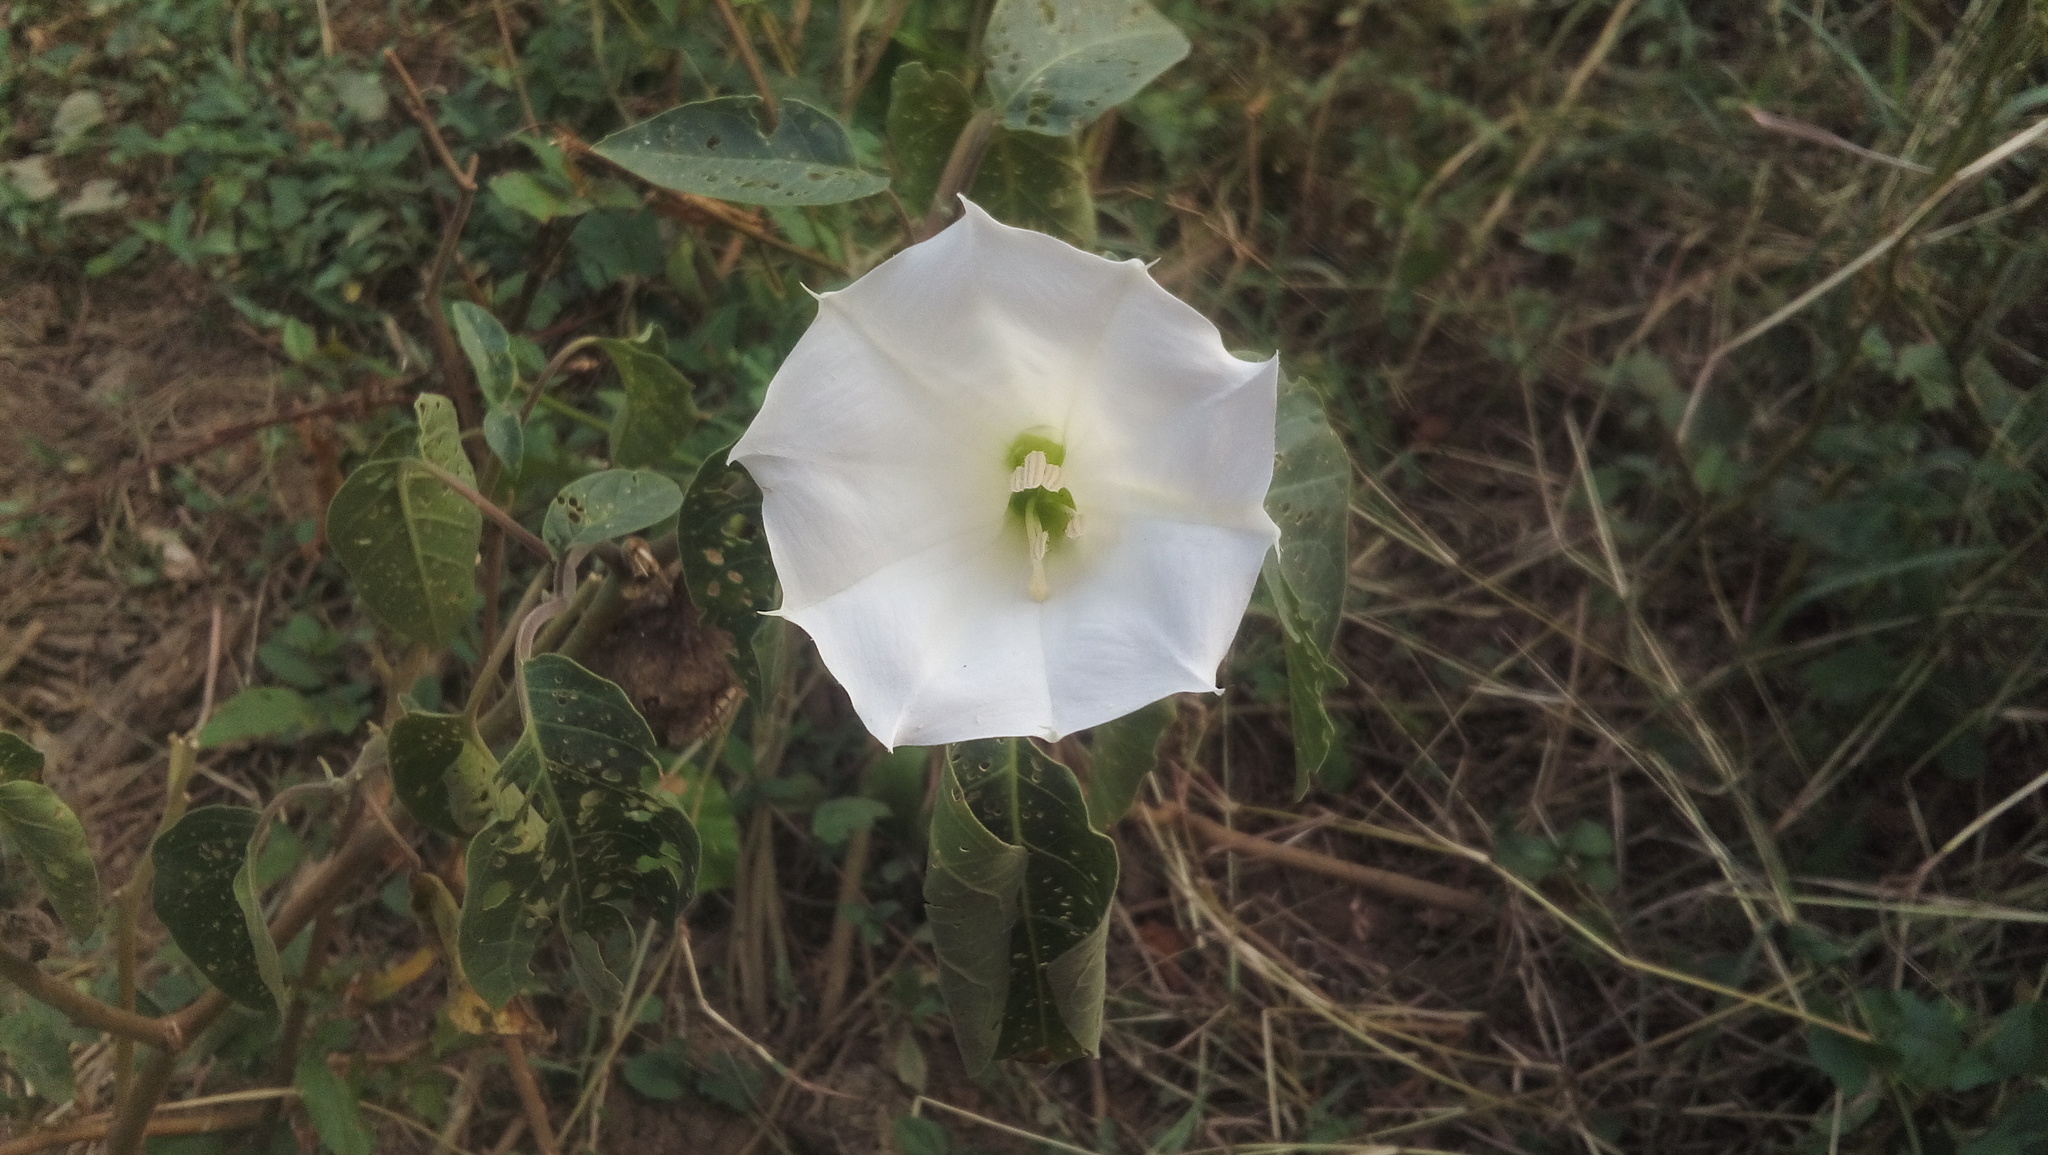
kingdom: Plantae
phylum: Tracheophyta
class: Magnoliopsida
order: Solanales
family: Solanaceae
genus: Datura
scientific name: Datura innoxia
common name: Downy thorn-apple
